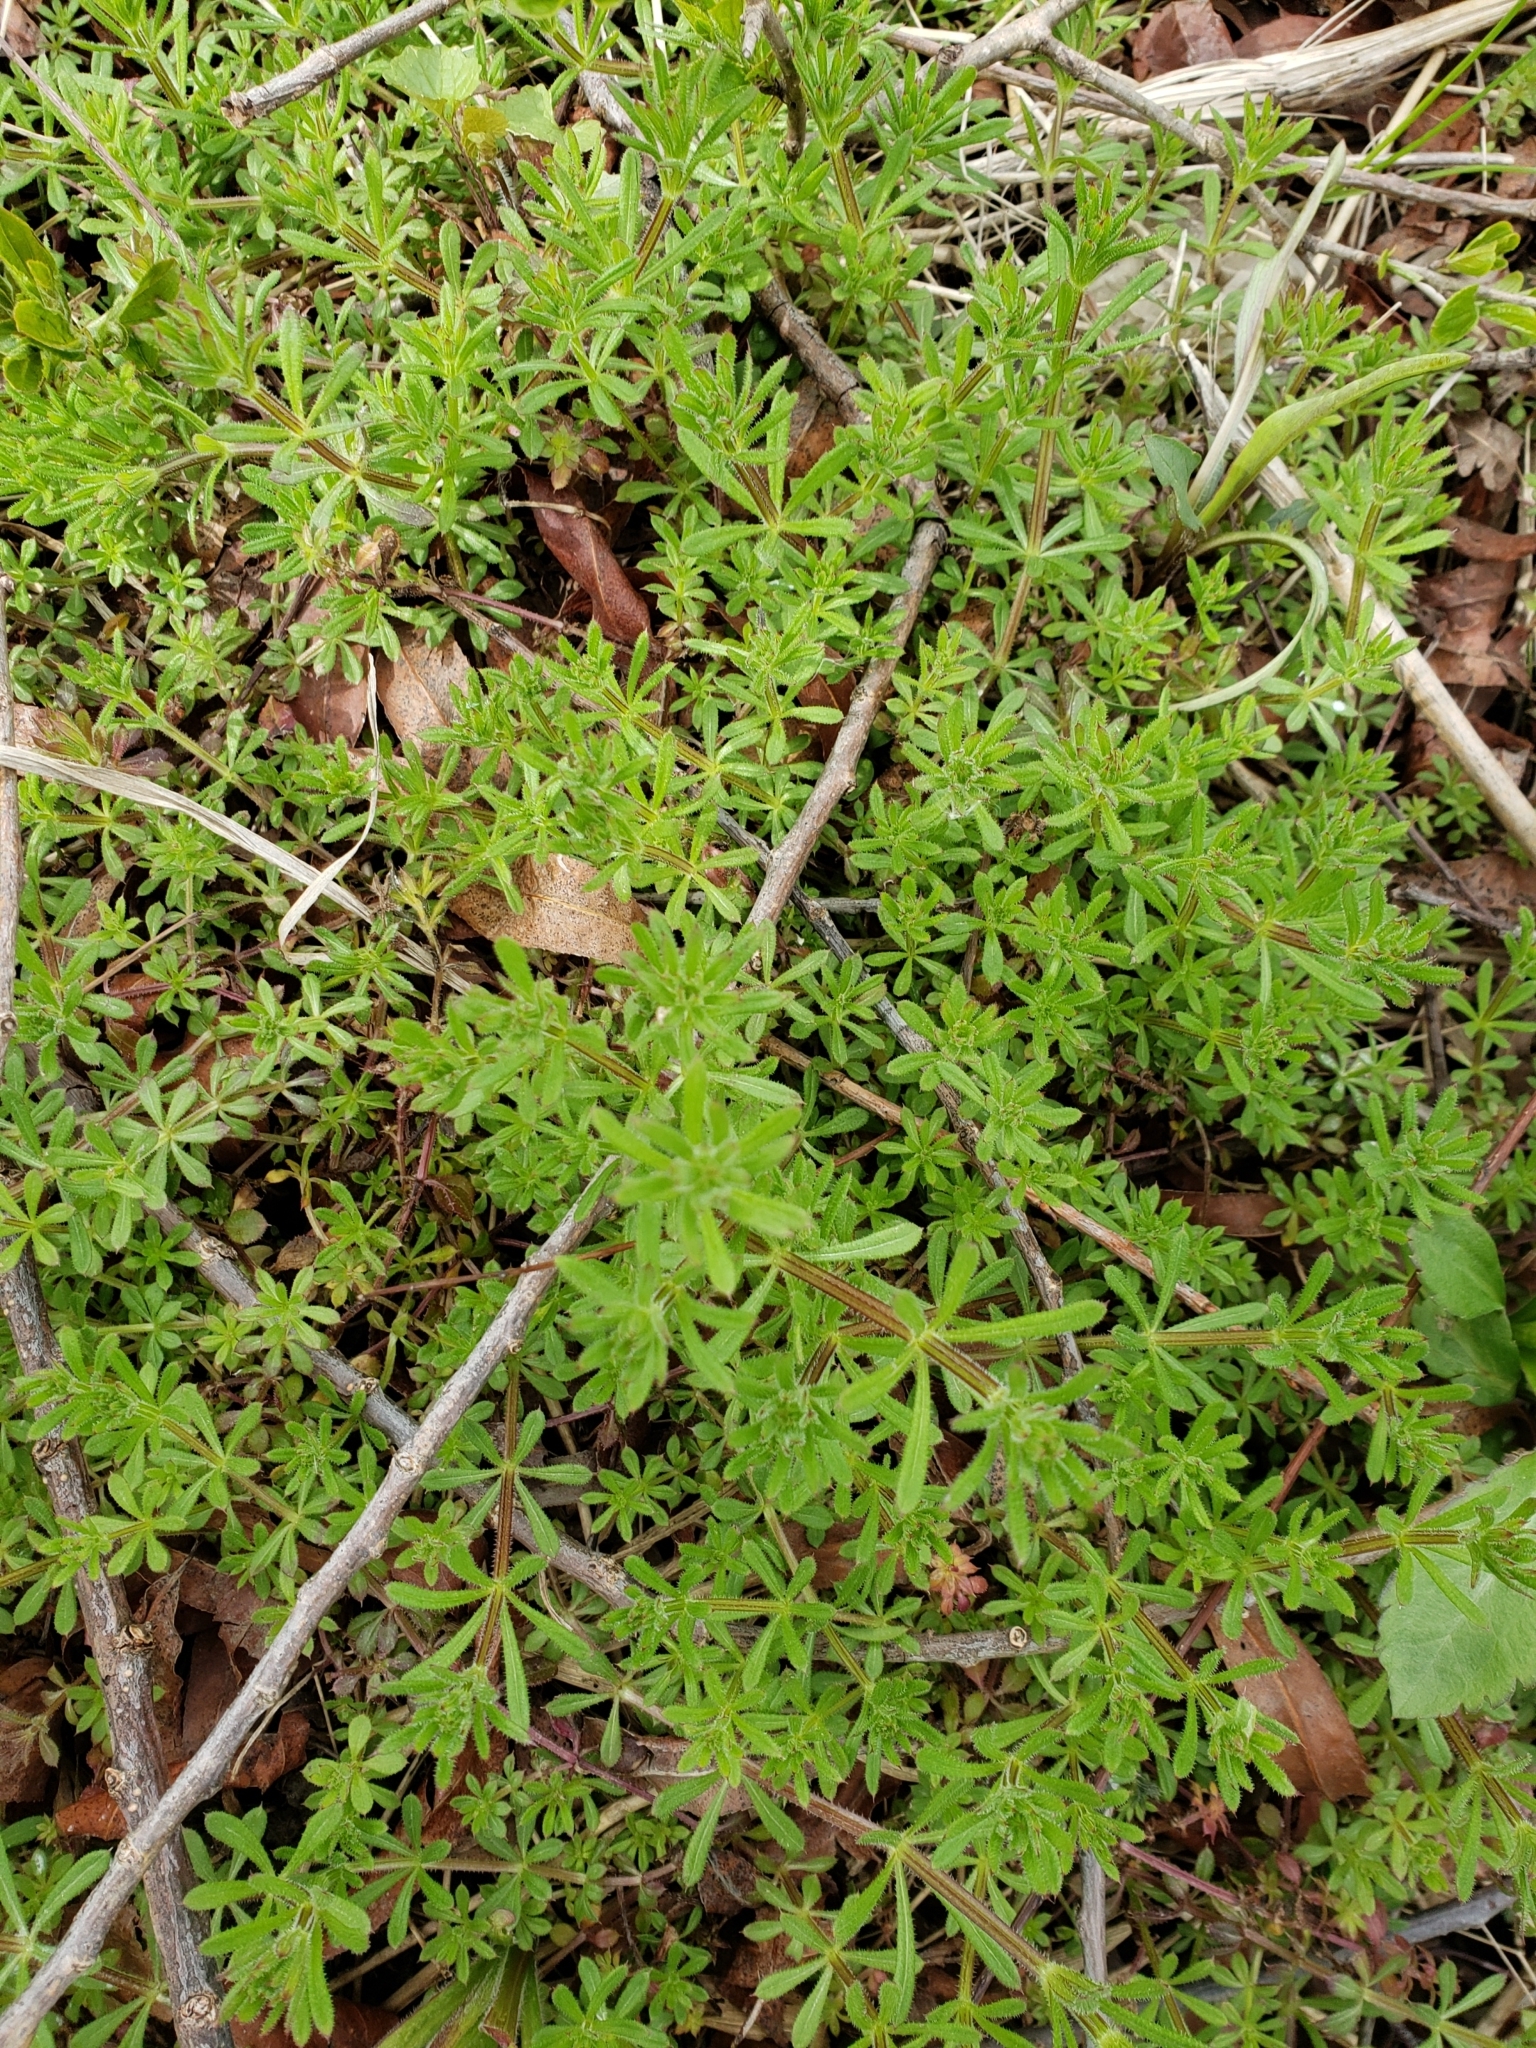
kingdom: Plantae
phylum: Tracheophyta
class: Magnoliopsida
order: Gentianales
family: Rubiaceae
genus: Galium
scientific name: Galium aparine
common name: Cleavers
